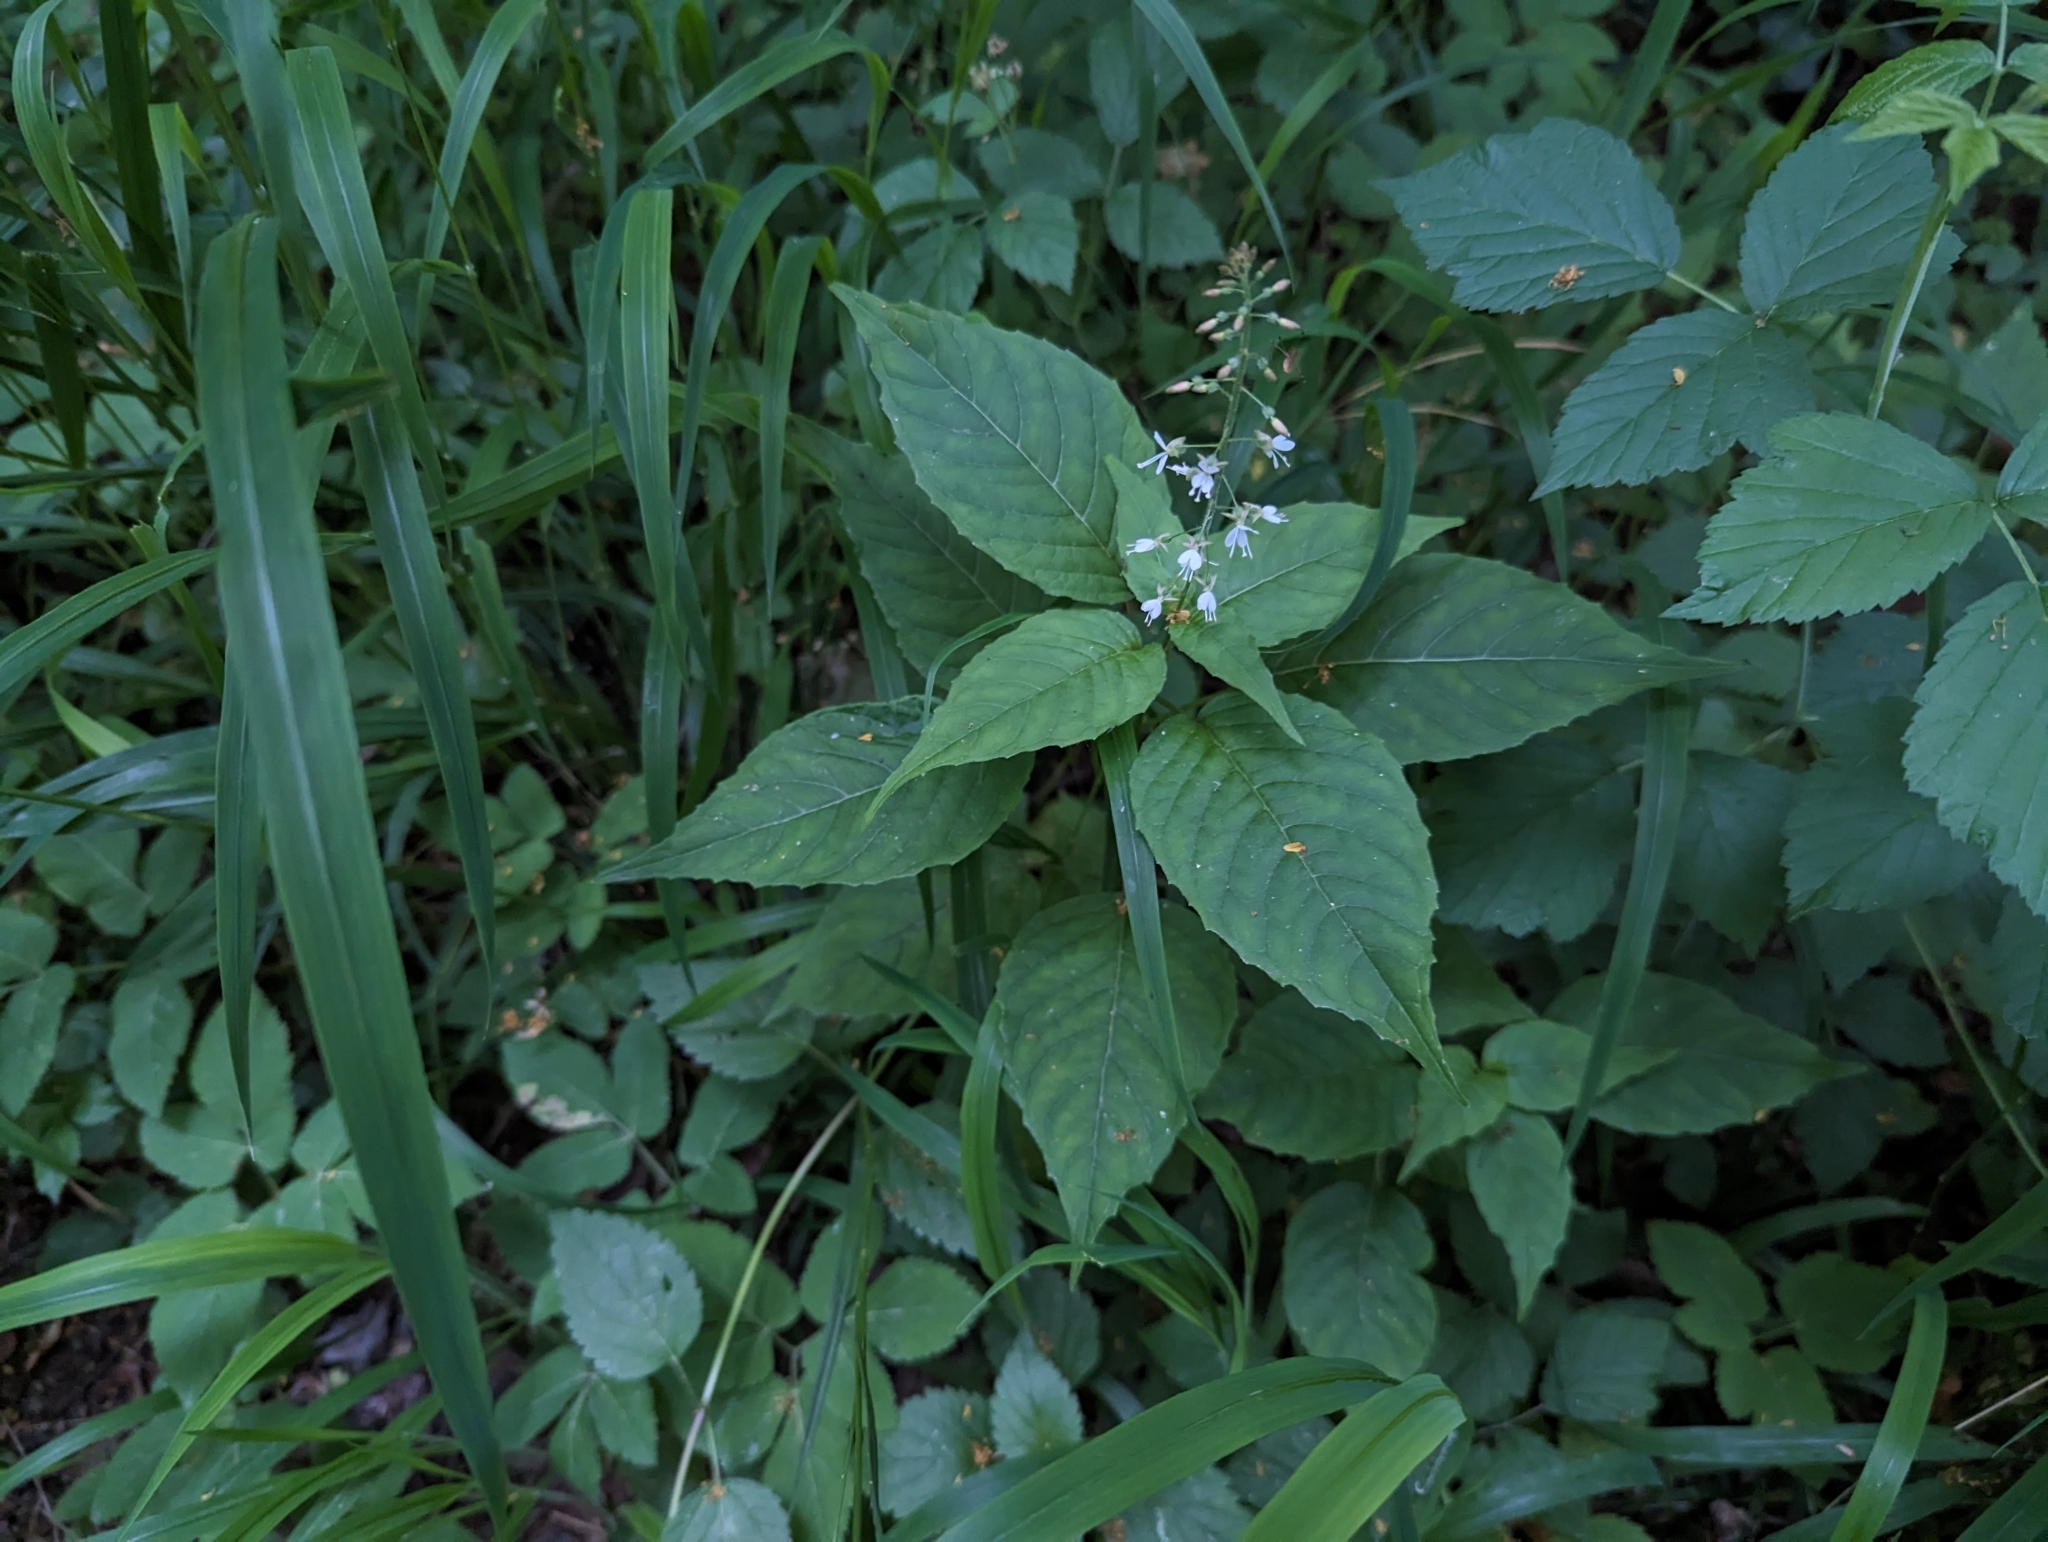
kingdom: Plantae
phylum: Tracheophyta
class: Magnoliopsida
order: Myrtales
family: Onagraceae
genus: Circaea
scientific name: Circaea lutetiana
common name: Enchanter's-nightshade
